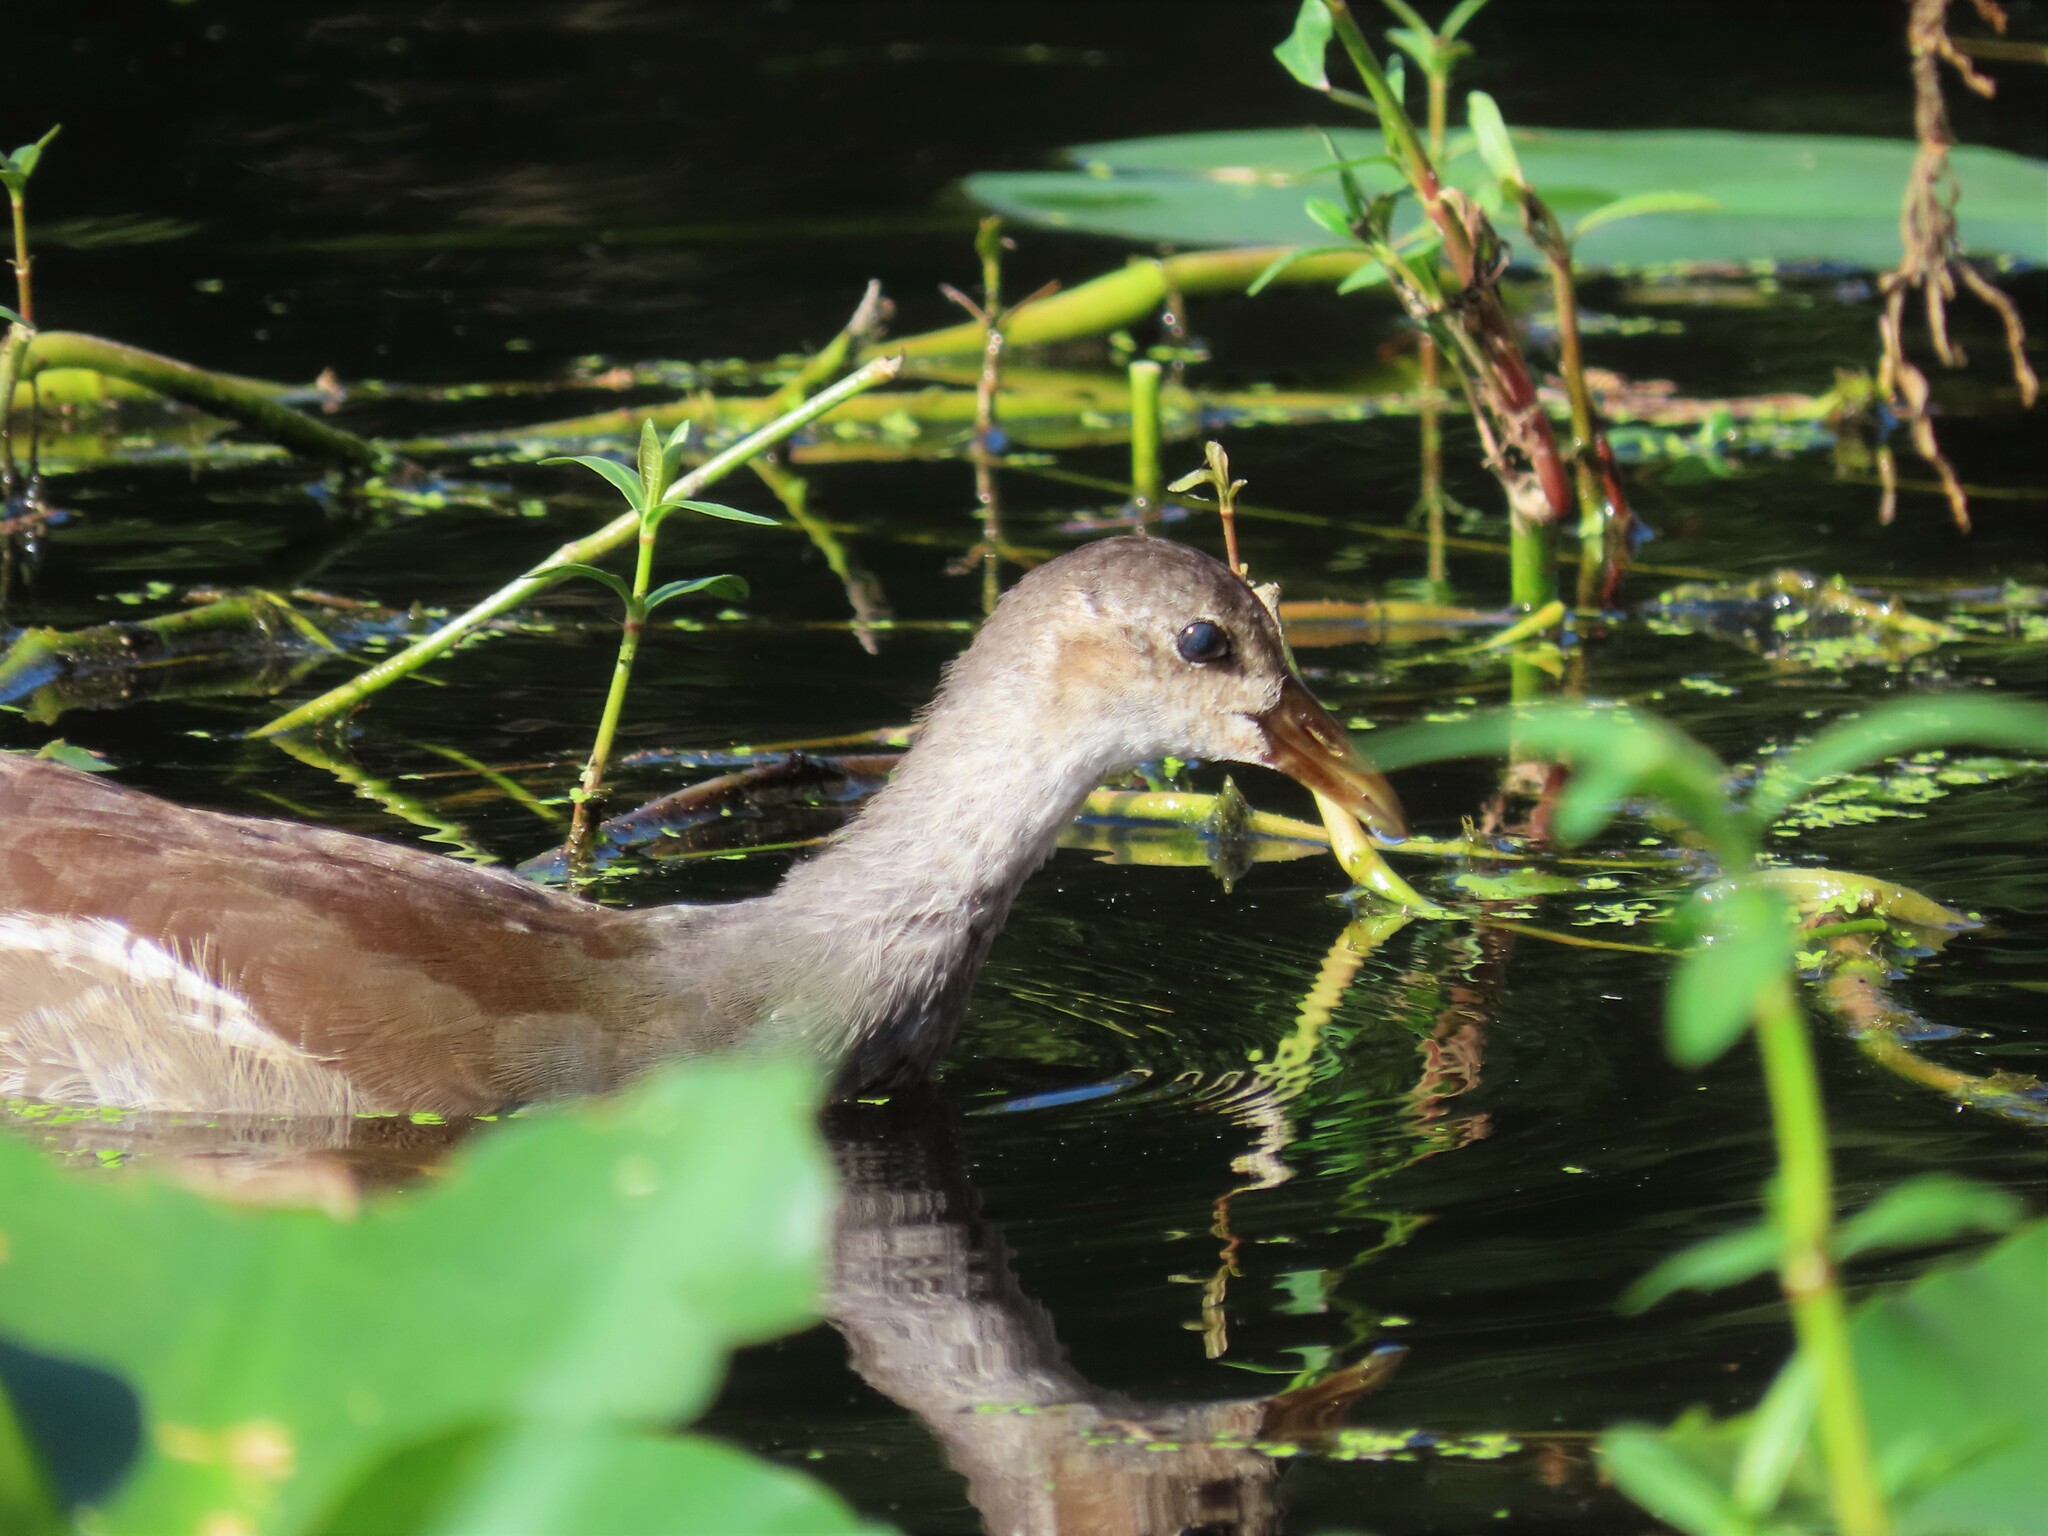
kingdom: Animalia
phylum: Chordata
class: Aves
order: Gruiformes
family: Rallidae
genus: Gallinula
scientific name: Gallinula chloropus
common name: Common moorhen
